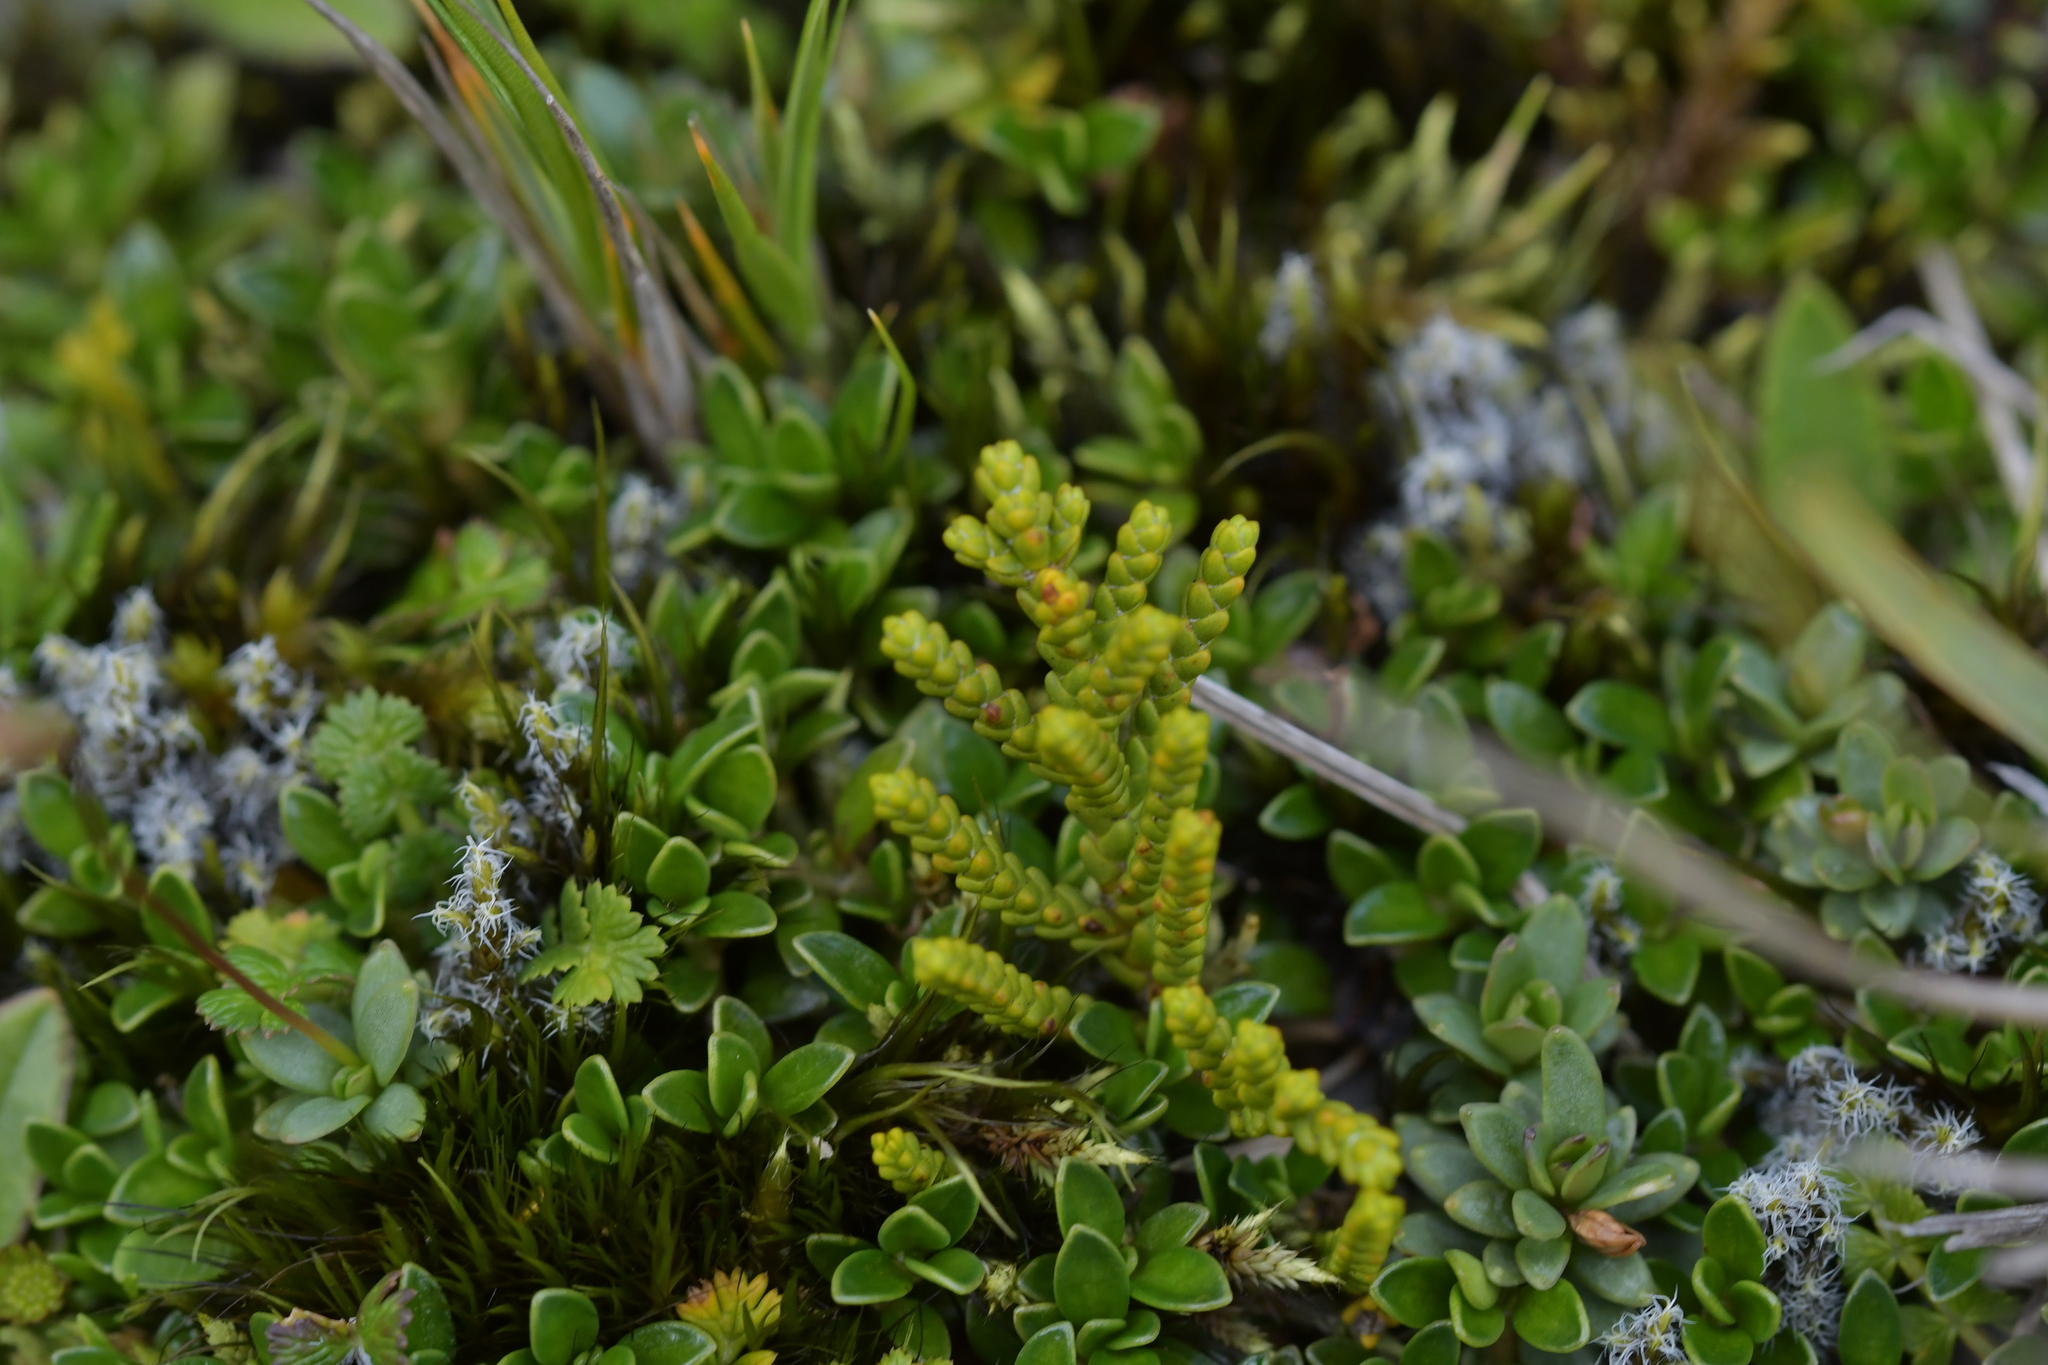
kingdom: Plantae
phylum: Tracheophyta
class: Magnoliopsida
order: Lamiales
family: Plantaginaceae
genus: Veronica
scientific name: Veronica tetragona
